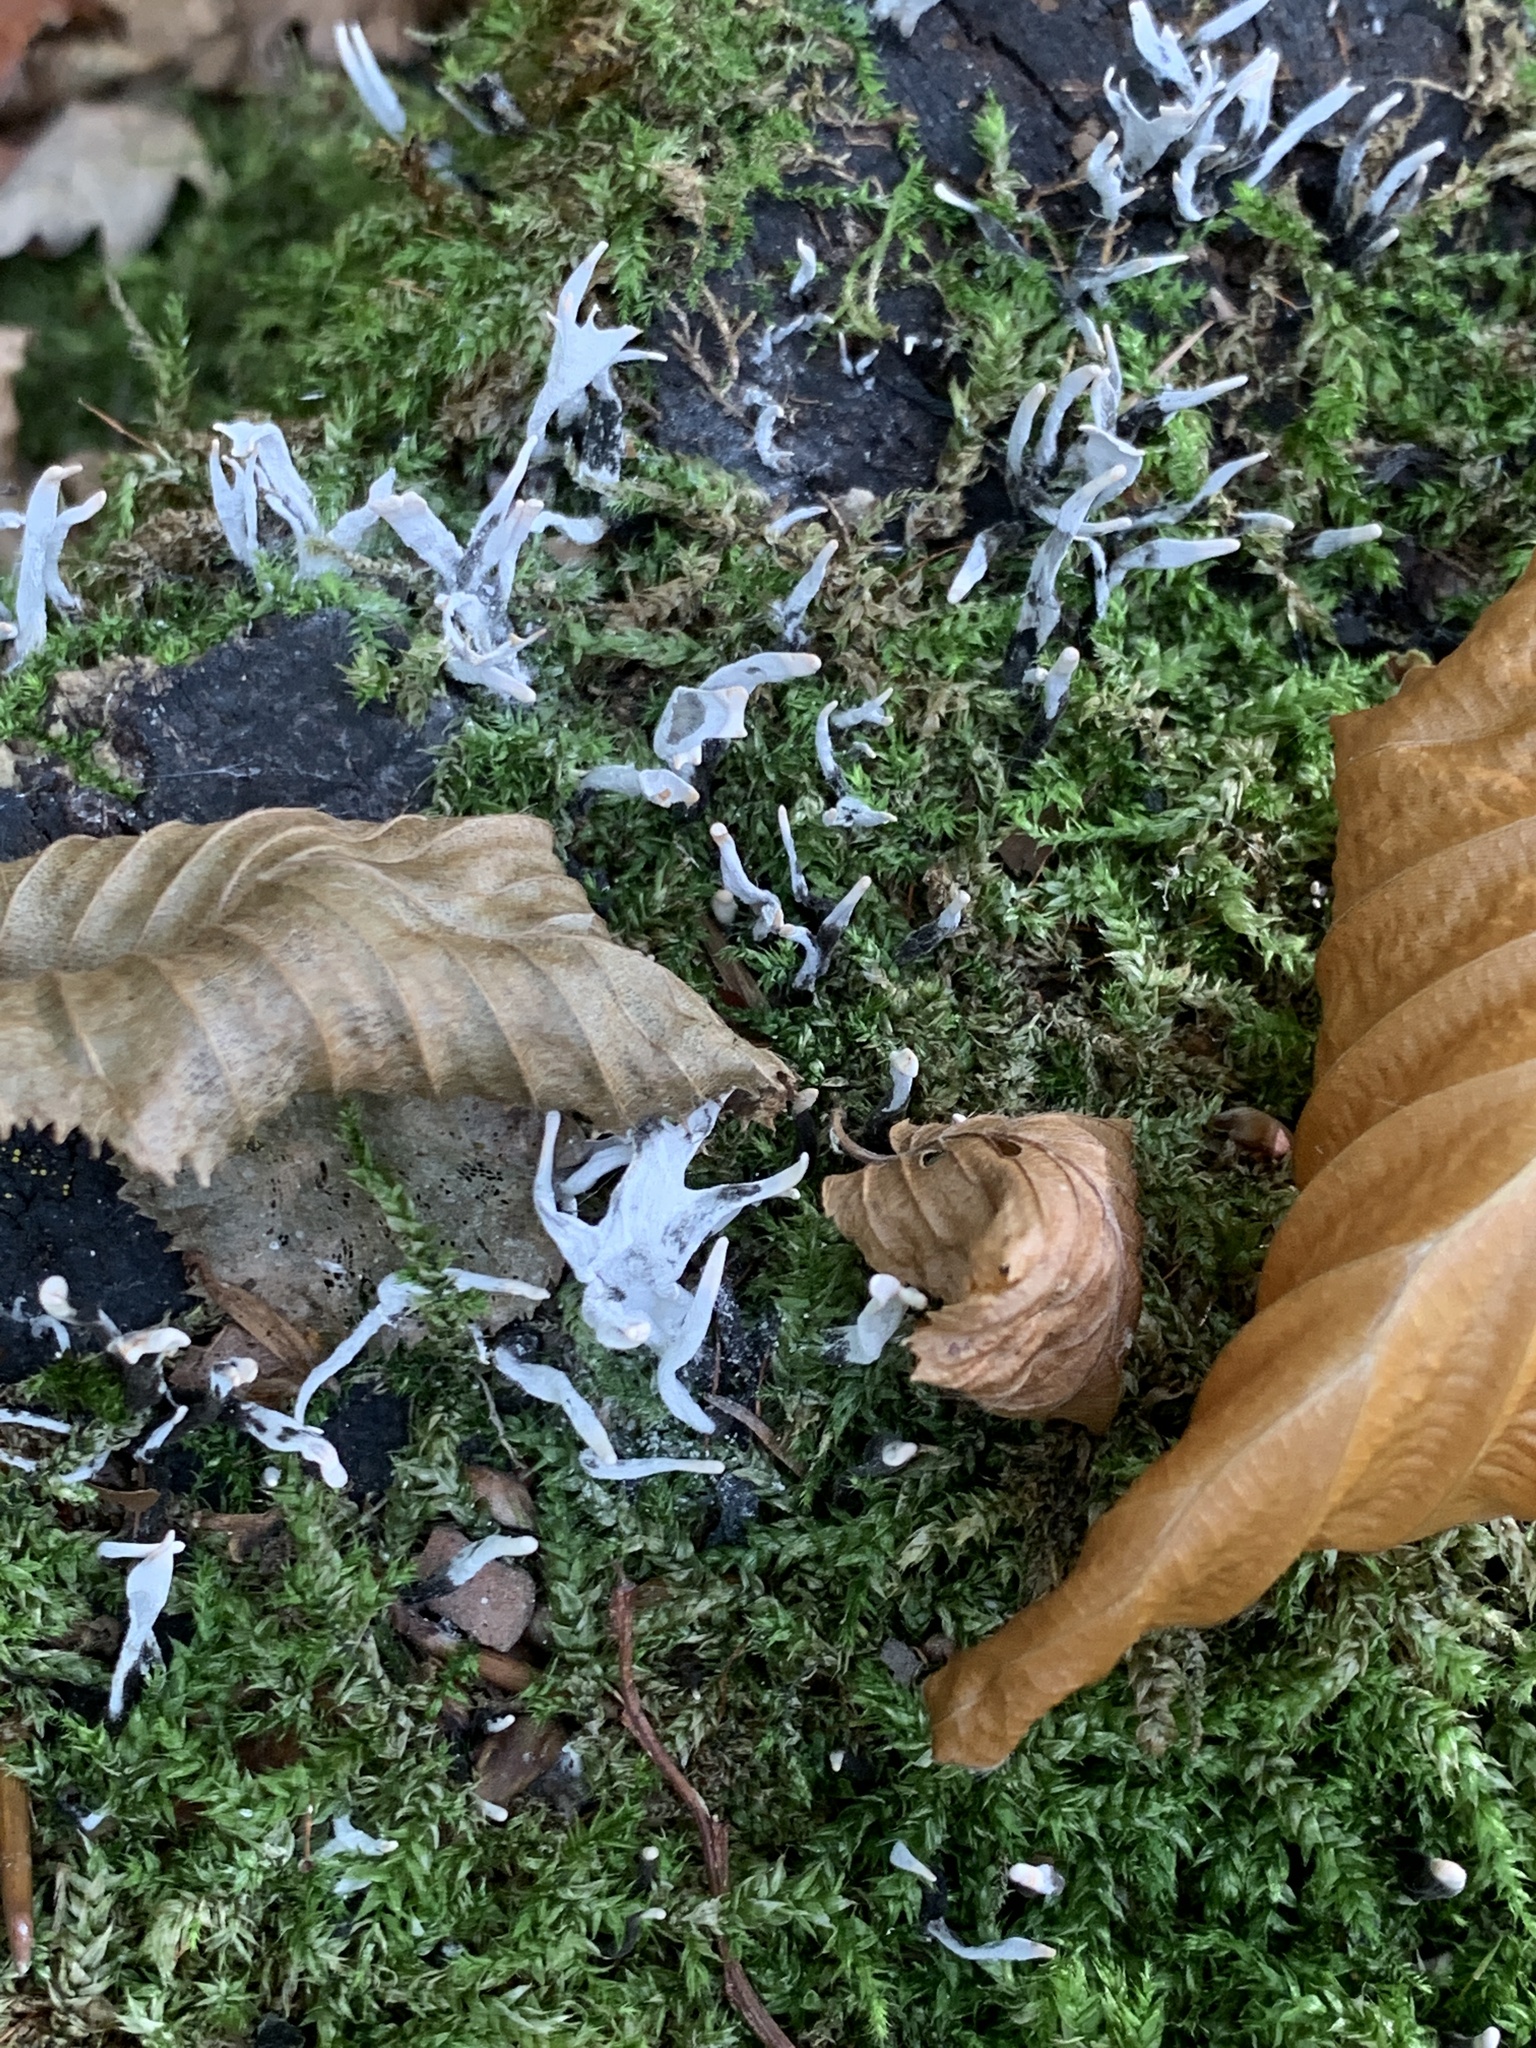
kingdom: Fungi
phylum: Ascomycota
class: Sordariomycetes
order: Xylariales
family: Xylariaceae
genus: Xylaria
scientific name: Xylaria hypoxylon
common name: Candle-snuff fungus
